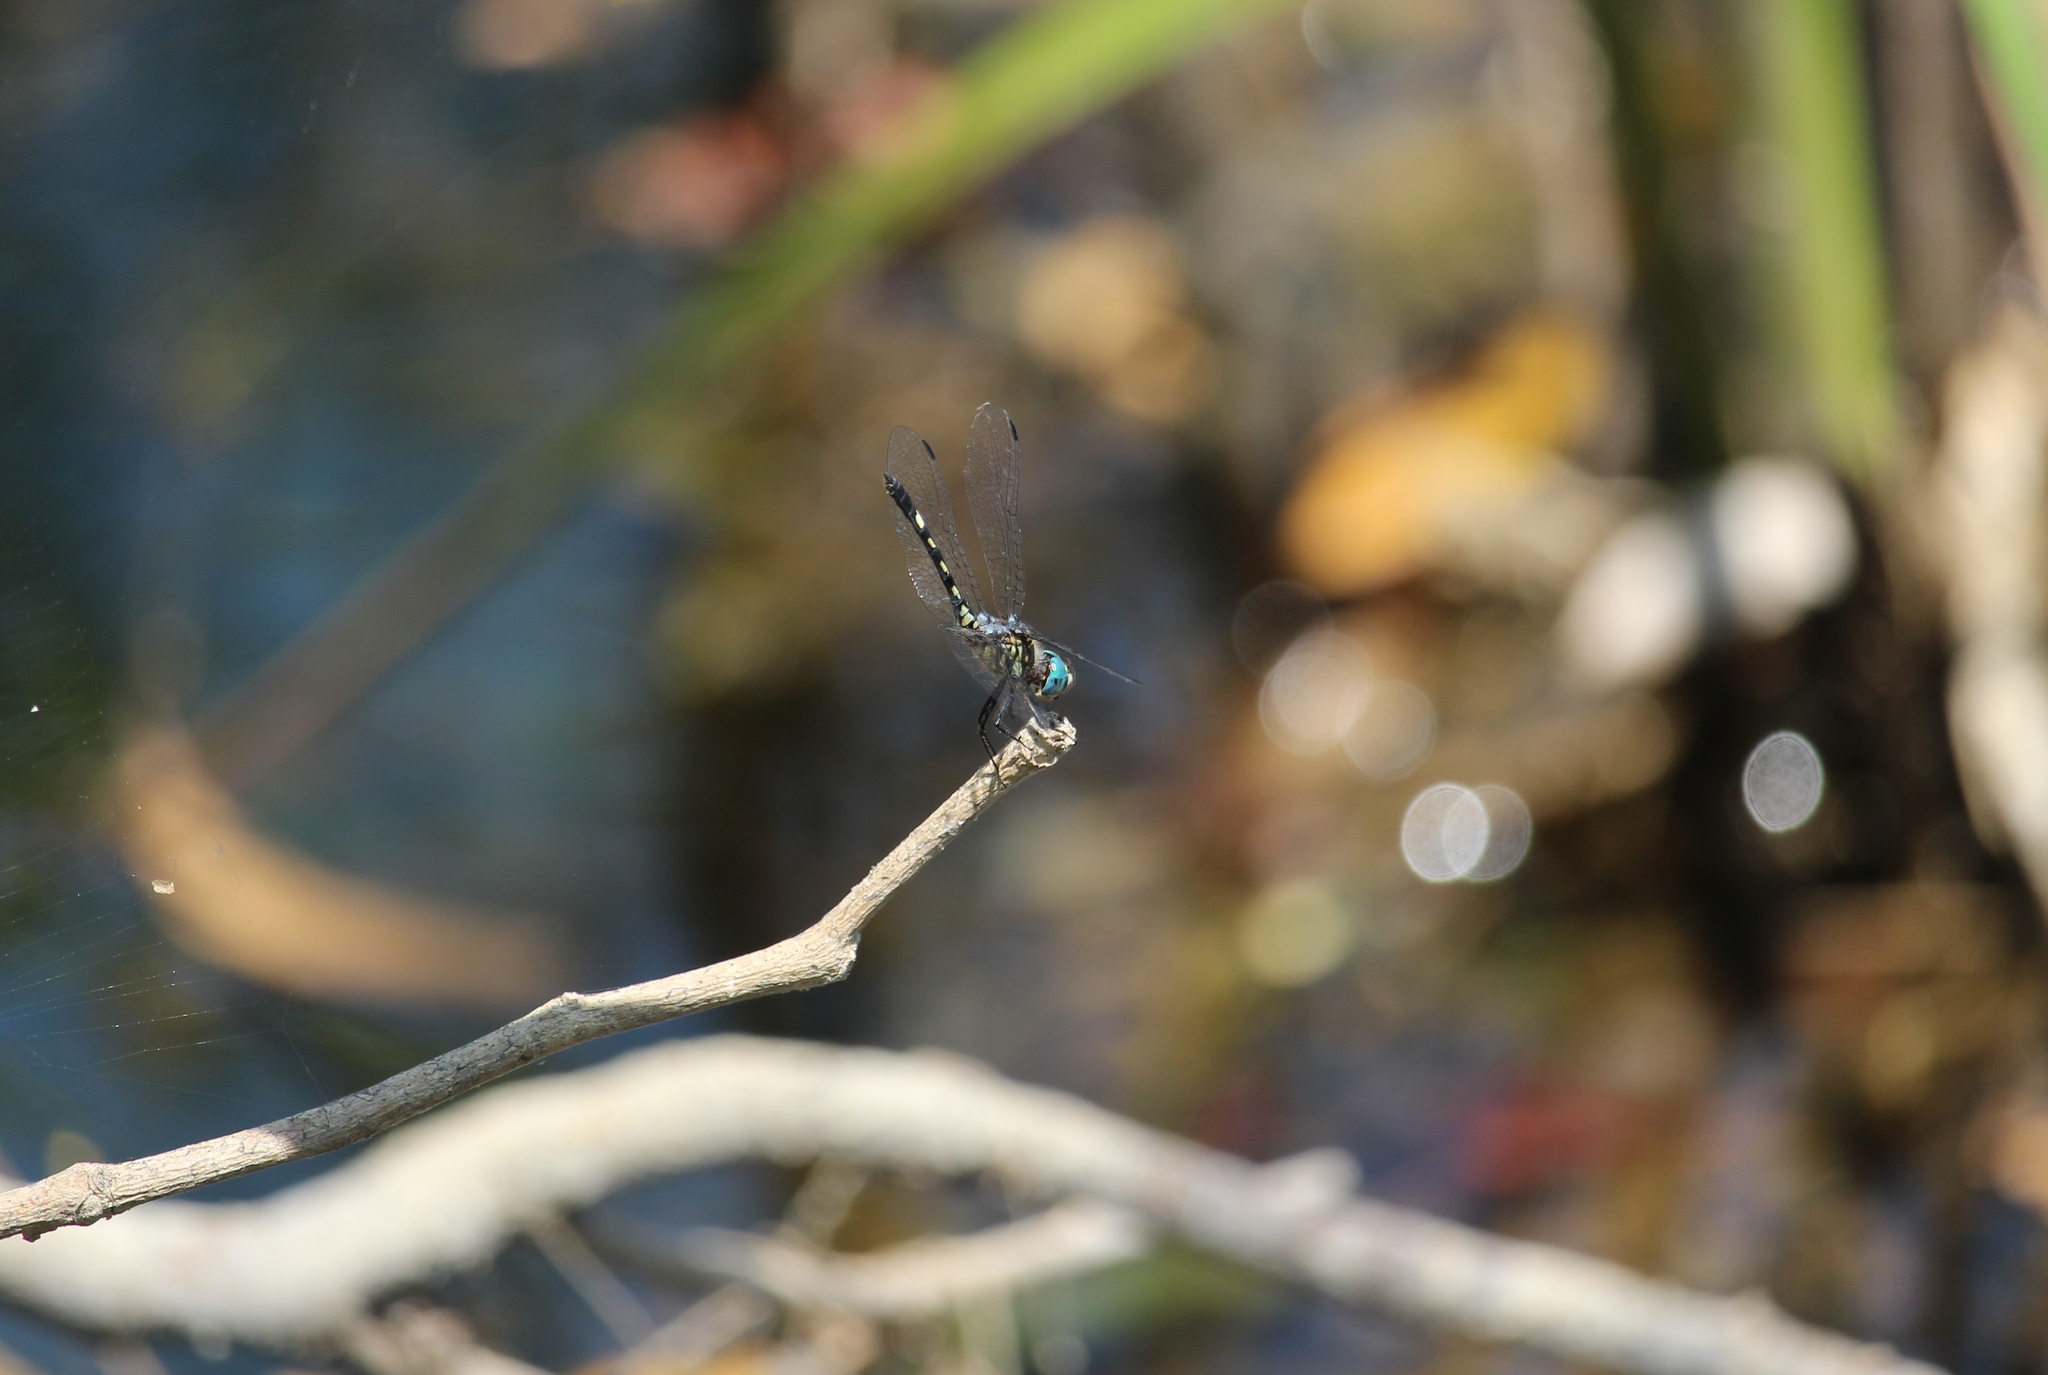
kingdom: Animalia
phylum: Arthropoda
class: Insecta
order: Odonata
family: Libellulidae
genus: Micrathyria
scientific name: Micrathyria hagenii
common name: Thornbush dasher
